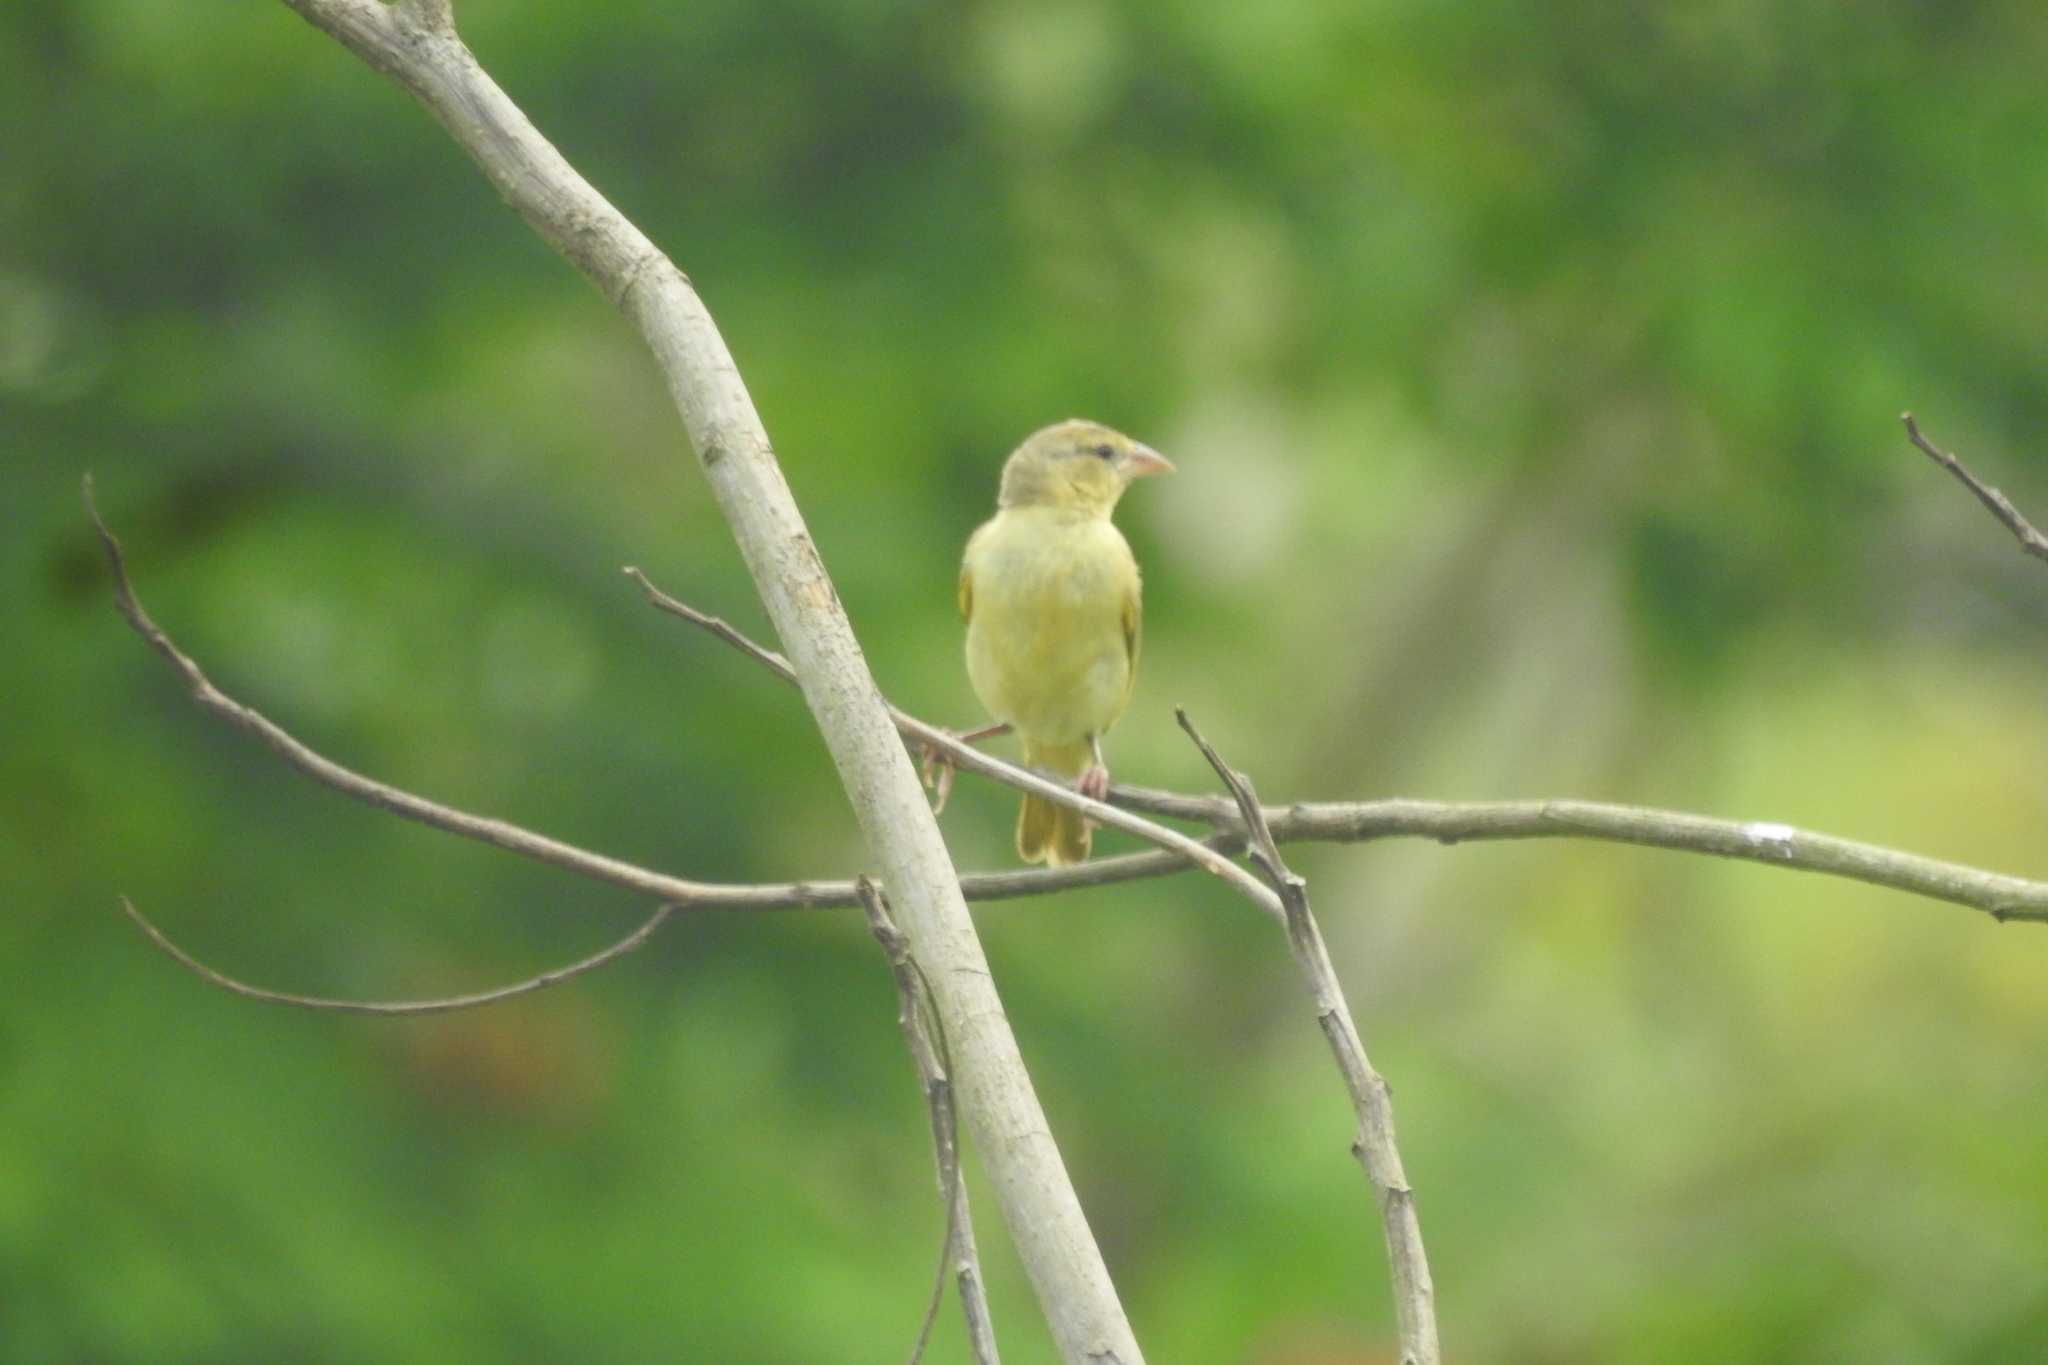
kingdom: Animalia
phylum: Chordata
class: Aves
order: Passeriformes
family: Ploceidae
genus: Ploceus
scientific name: Ploceus jacksoni
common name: Golden-backed weaver
